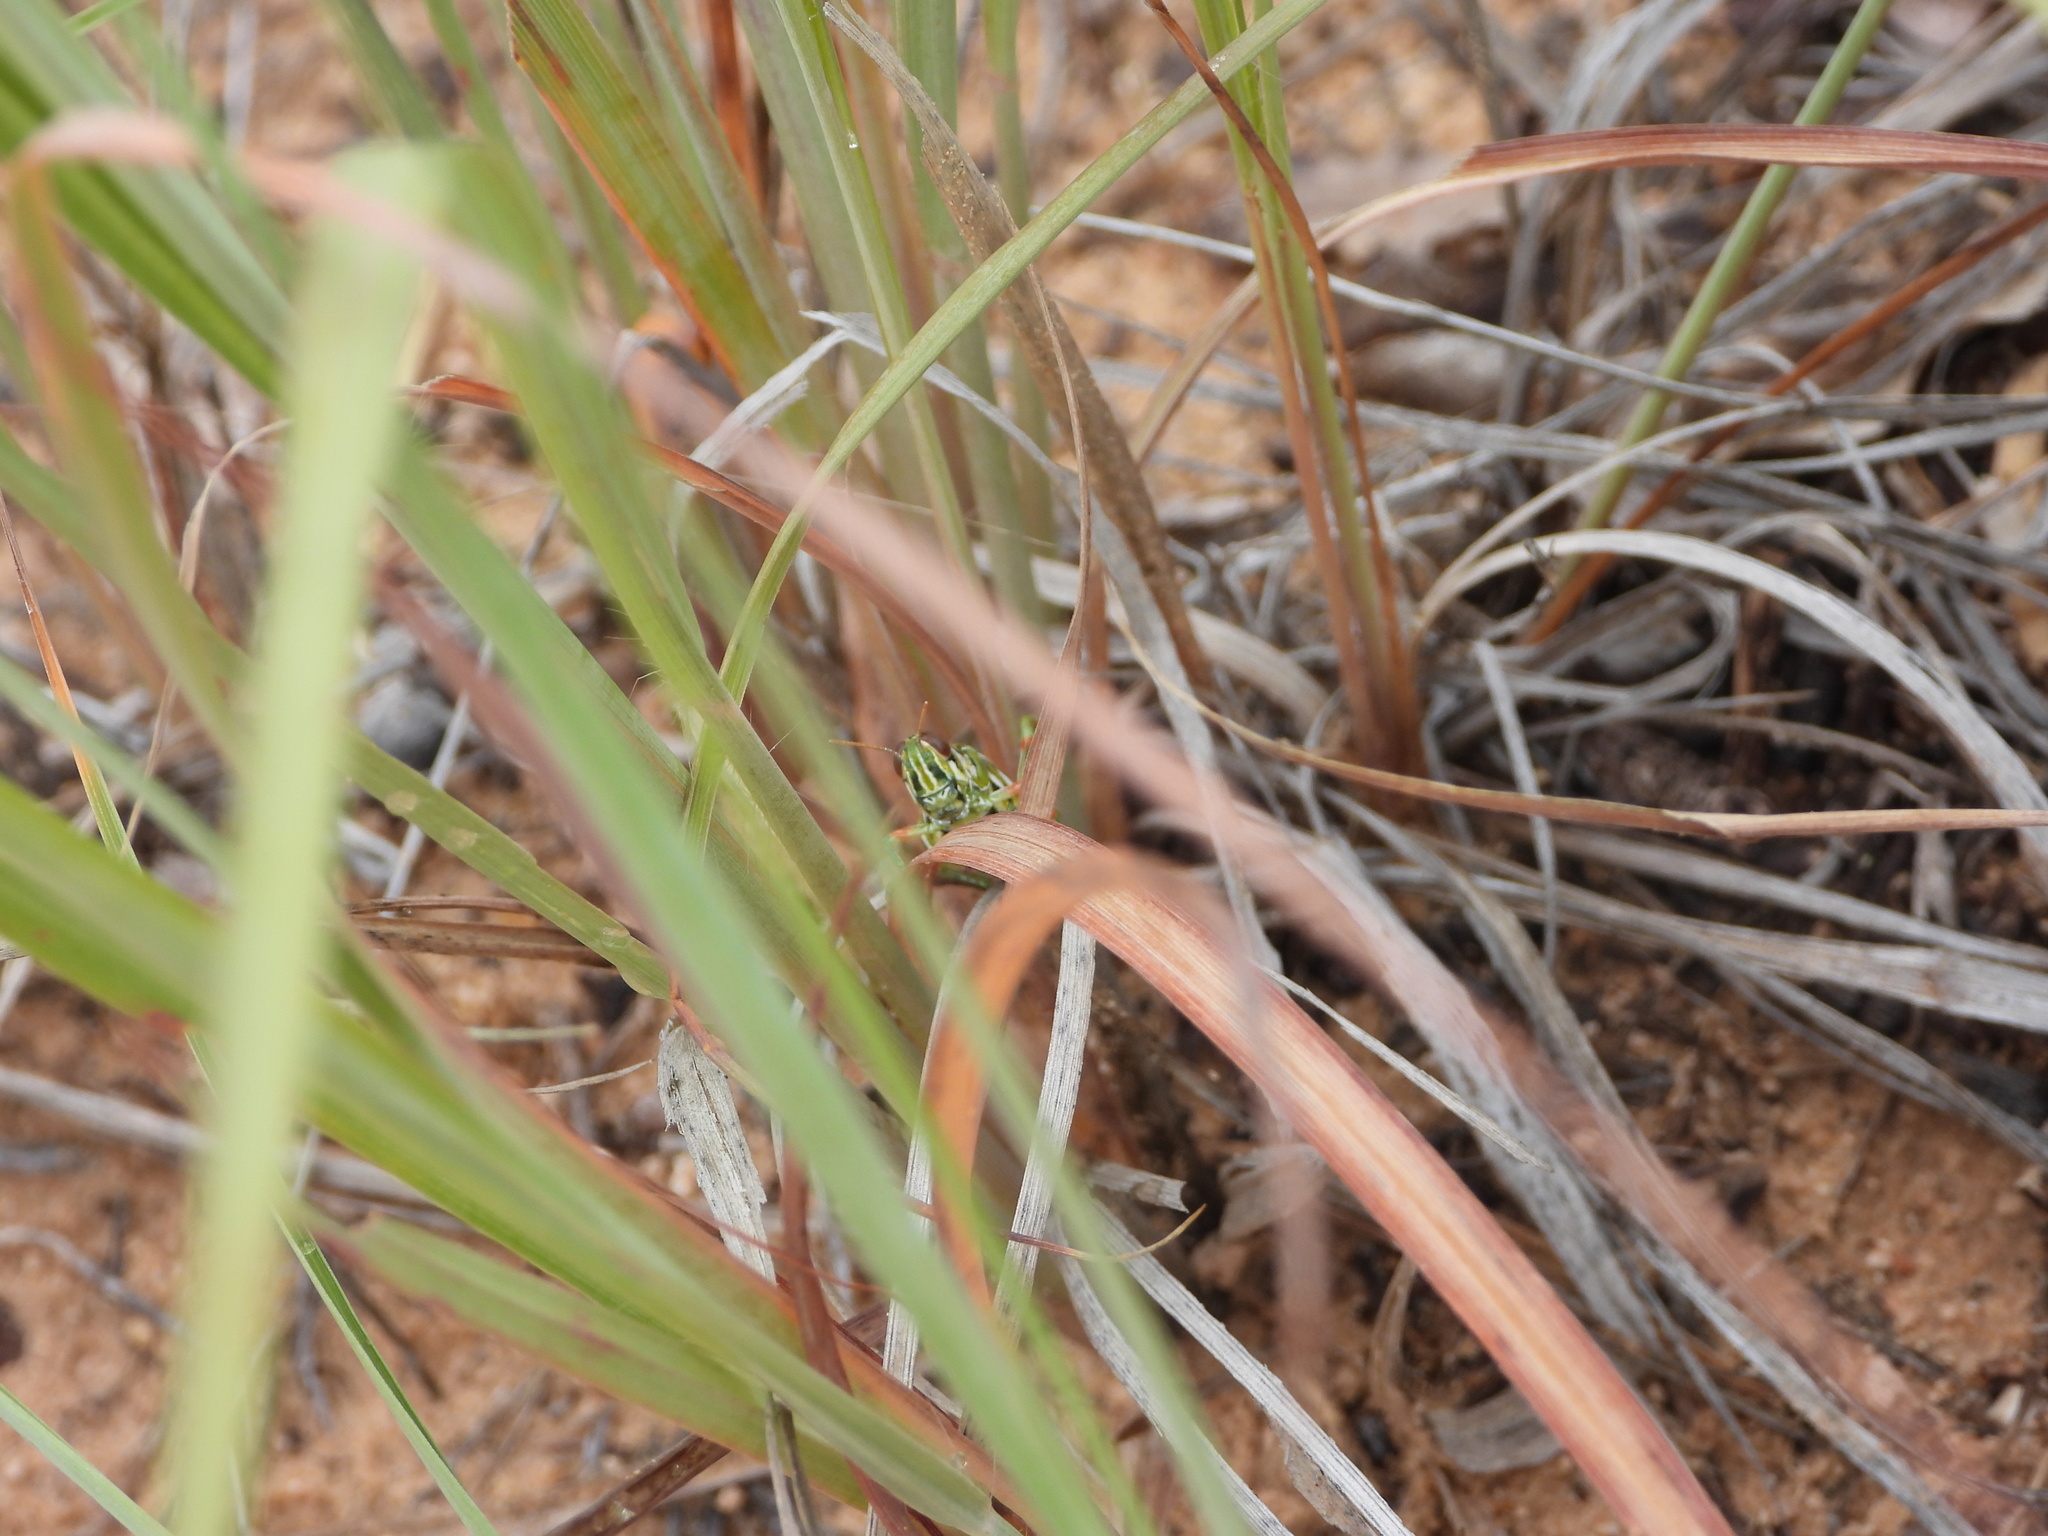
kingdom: Animalia
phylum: Arthropoda
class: Insecta
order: Orthoptera
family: Acrididae
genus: Hesperotettix
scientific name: Hesperotettix viridis
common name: Meadow purple-striped grasshopper
